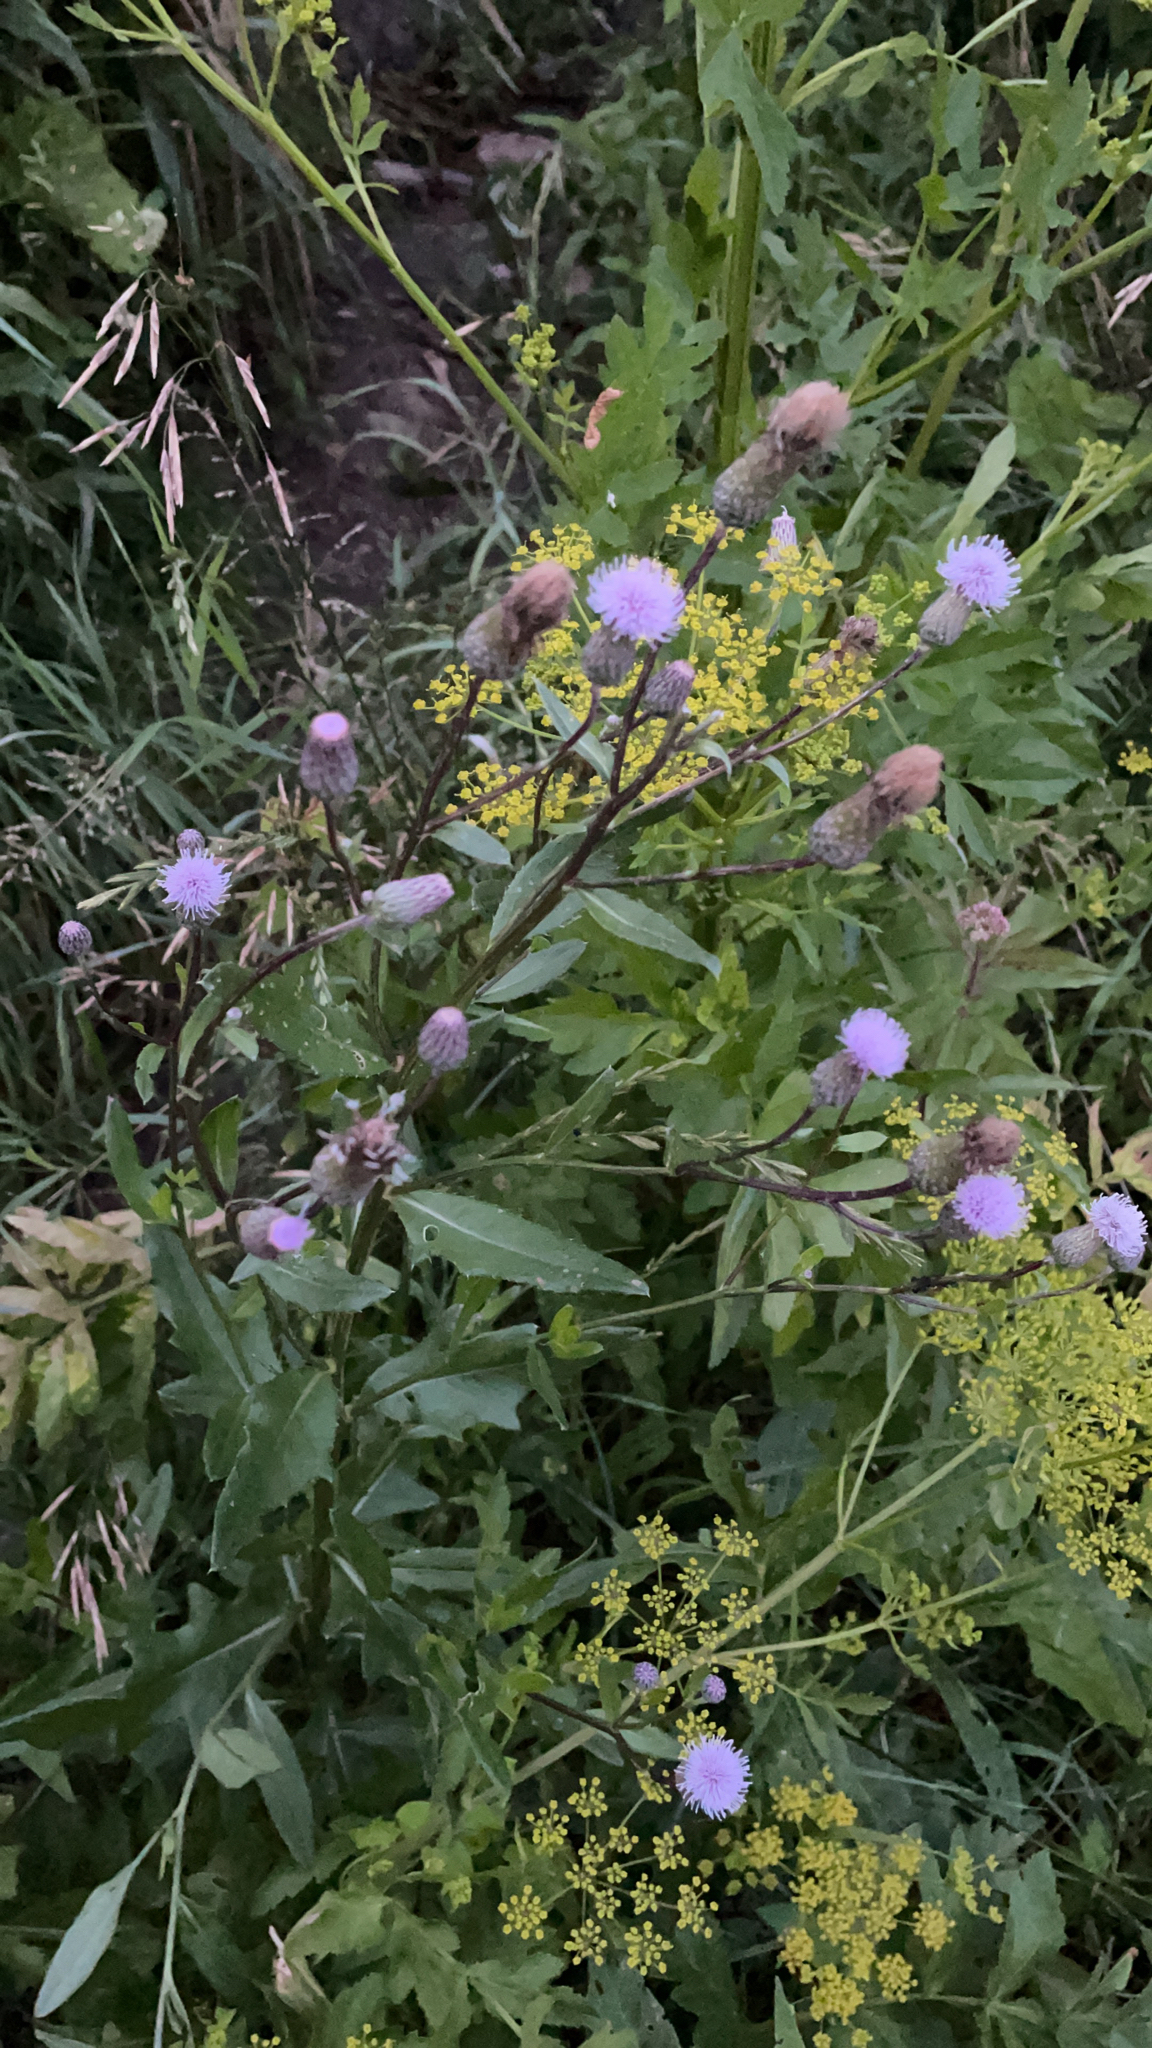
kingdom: Plantae
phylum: Tracheophyta
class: Magnoliopsida
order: Asterales
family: Asteraceae
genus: Cirsium
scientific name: Cirsium arvense
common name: Creeping thistle
